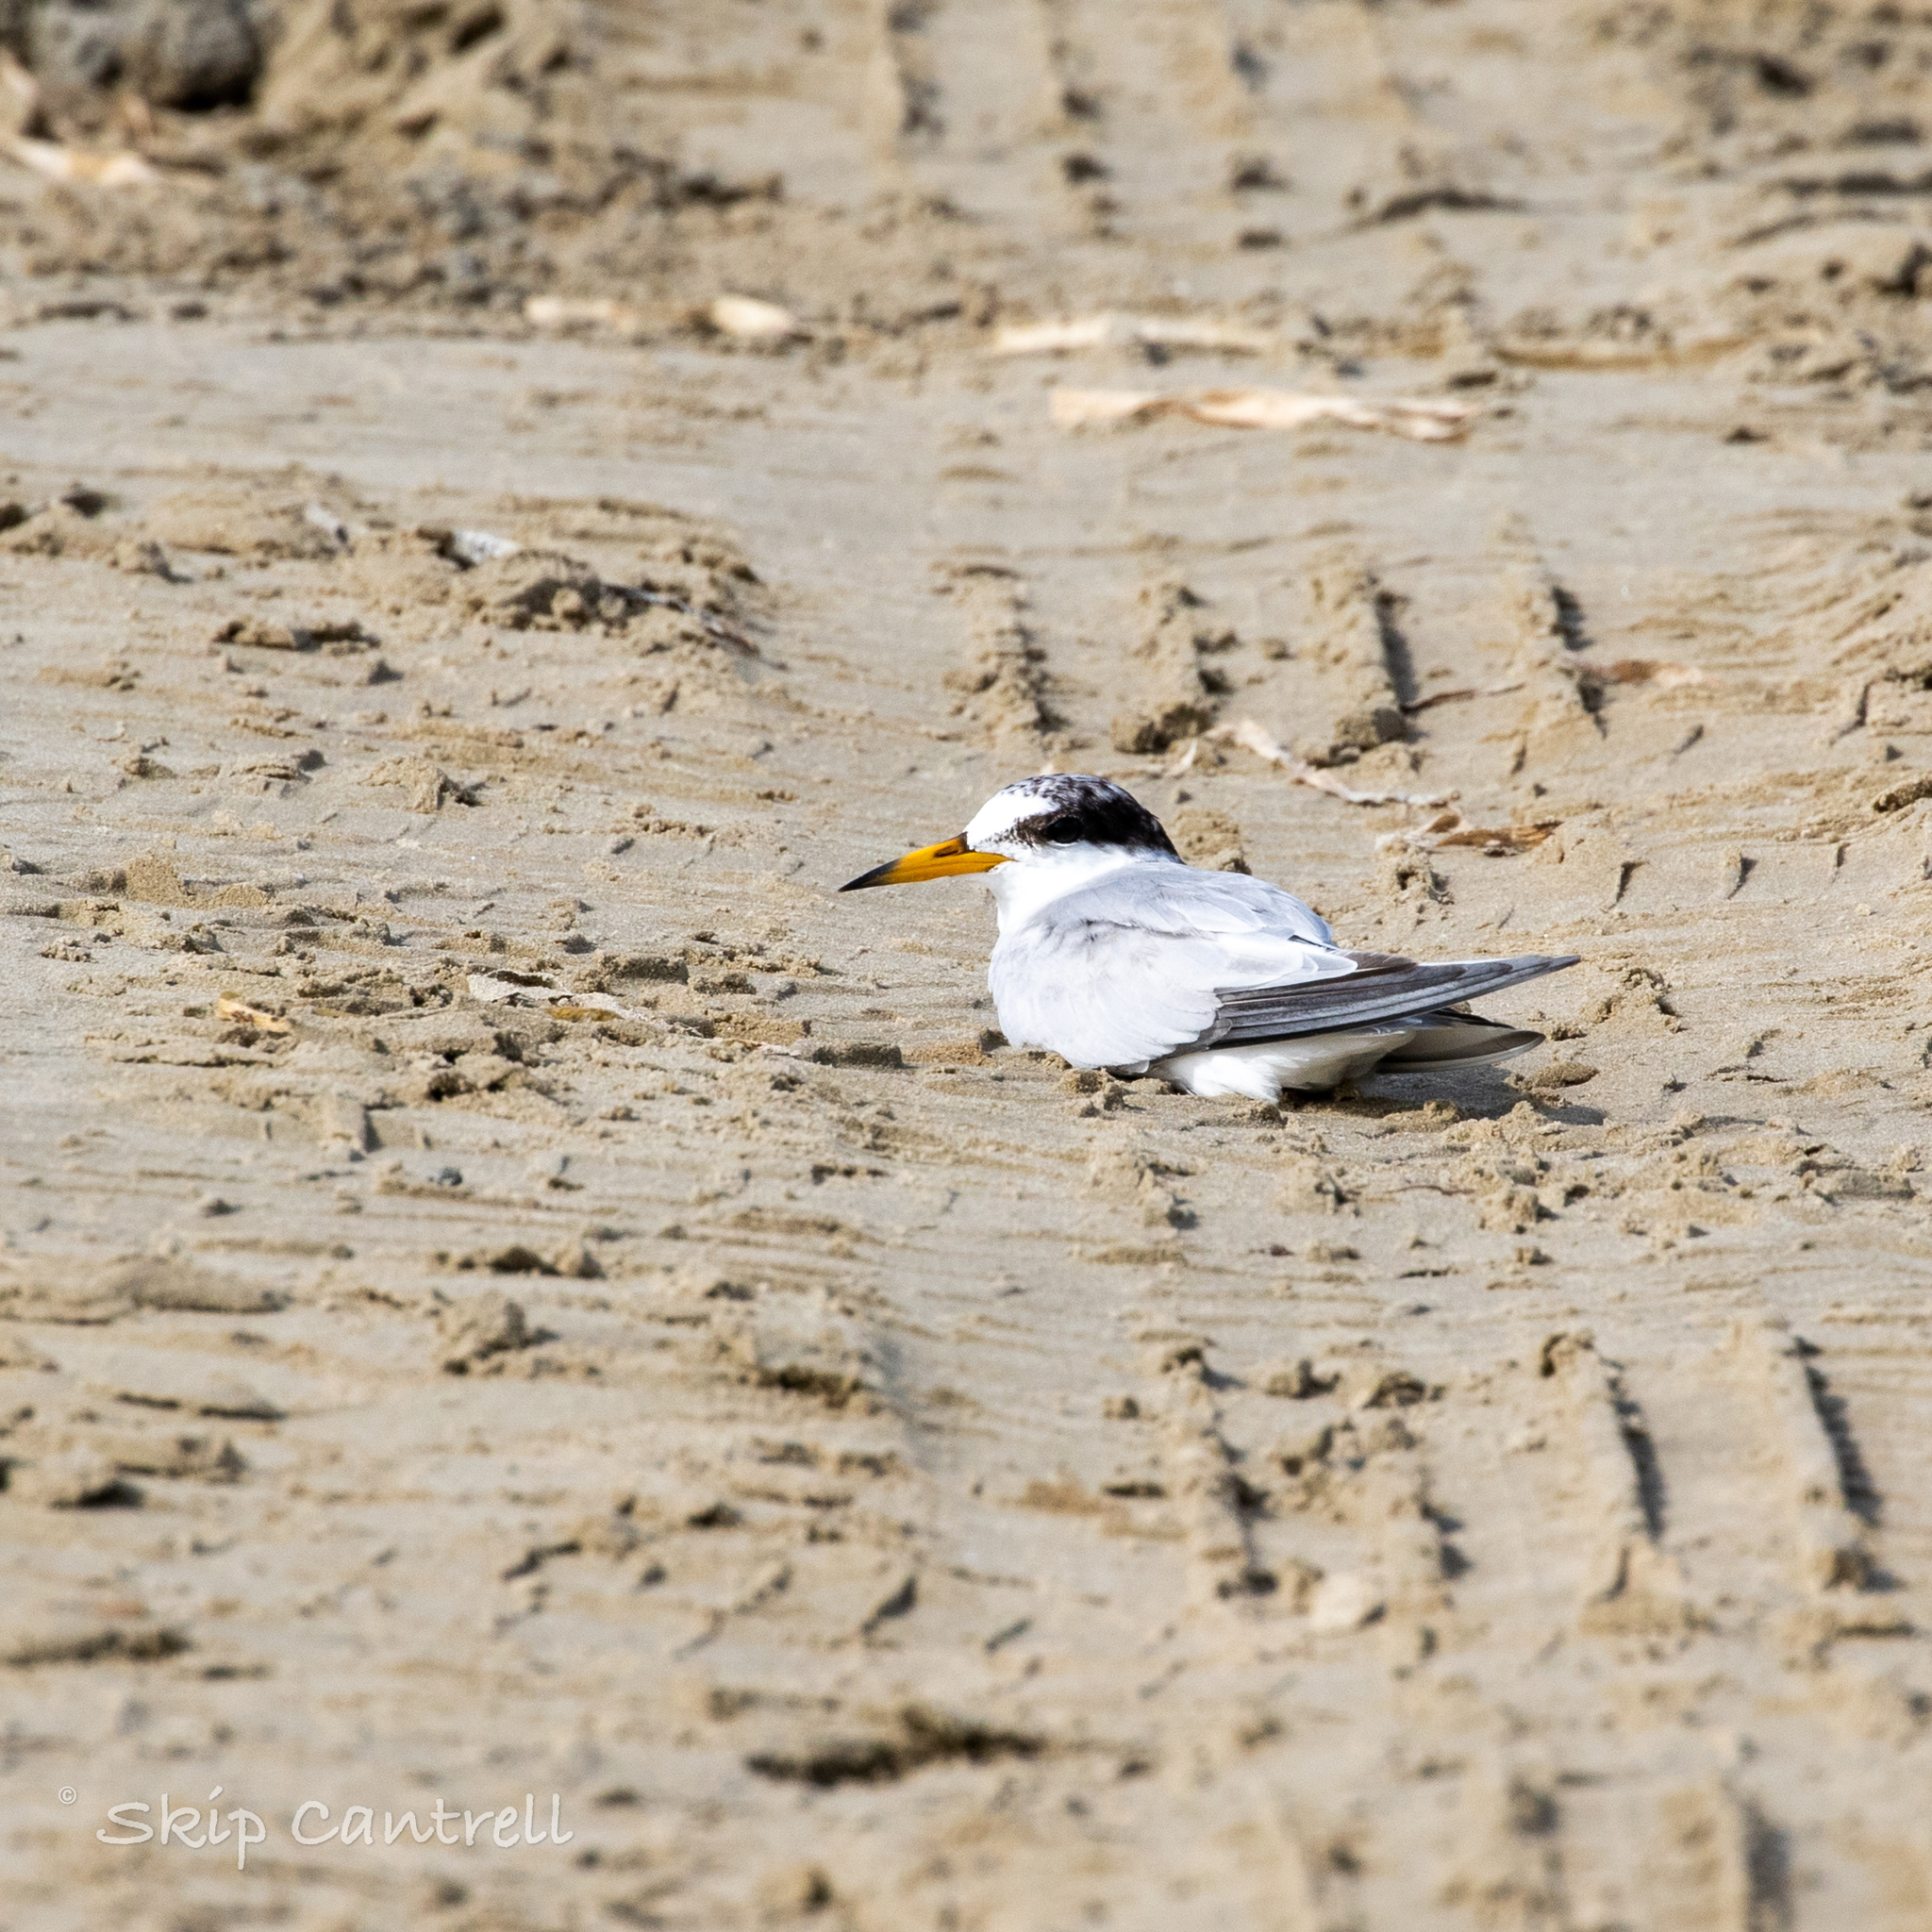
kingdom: Animalia
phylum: Chordata
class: Aves
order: Charadriiformes
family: Laridae
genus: Sternula
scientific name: Sternula antillarum
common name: Least tern
